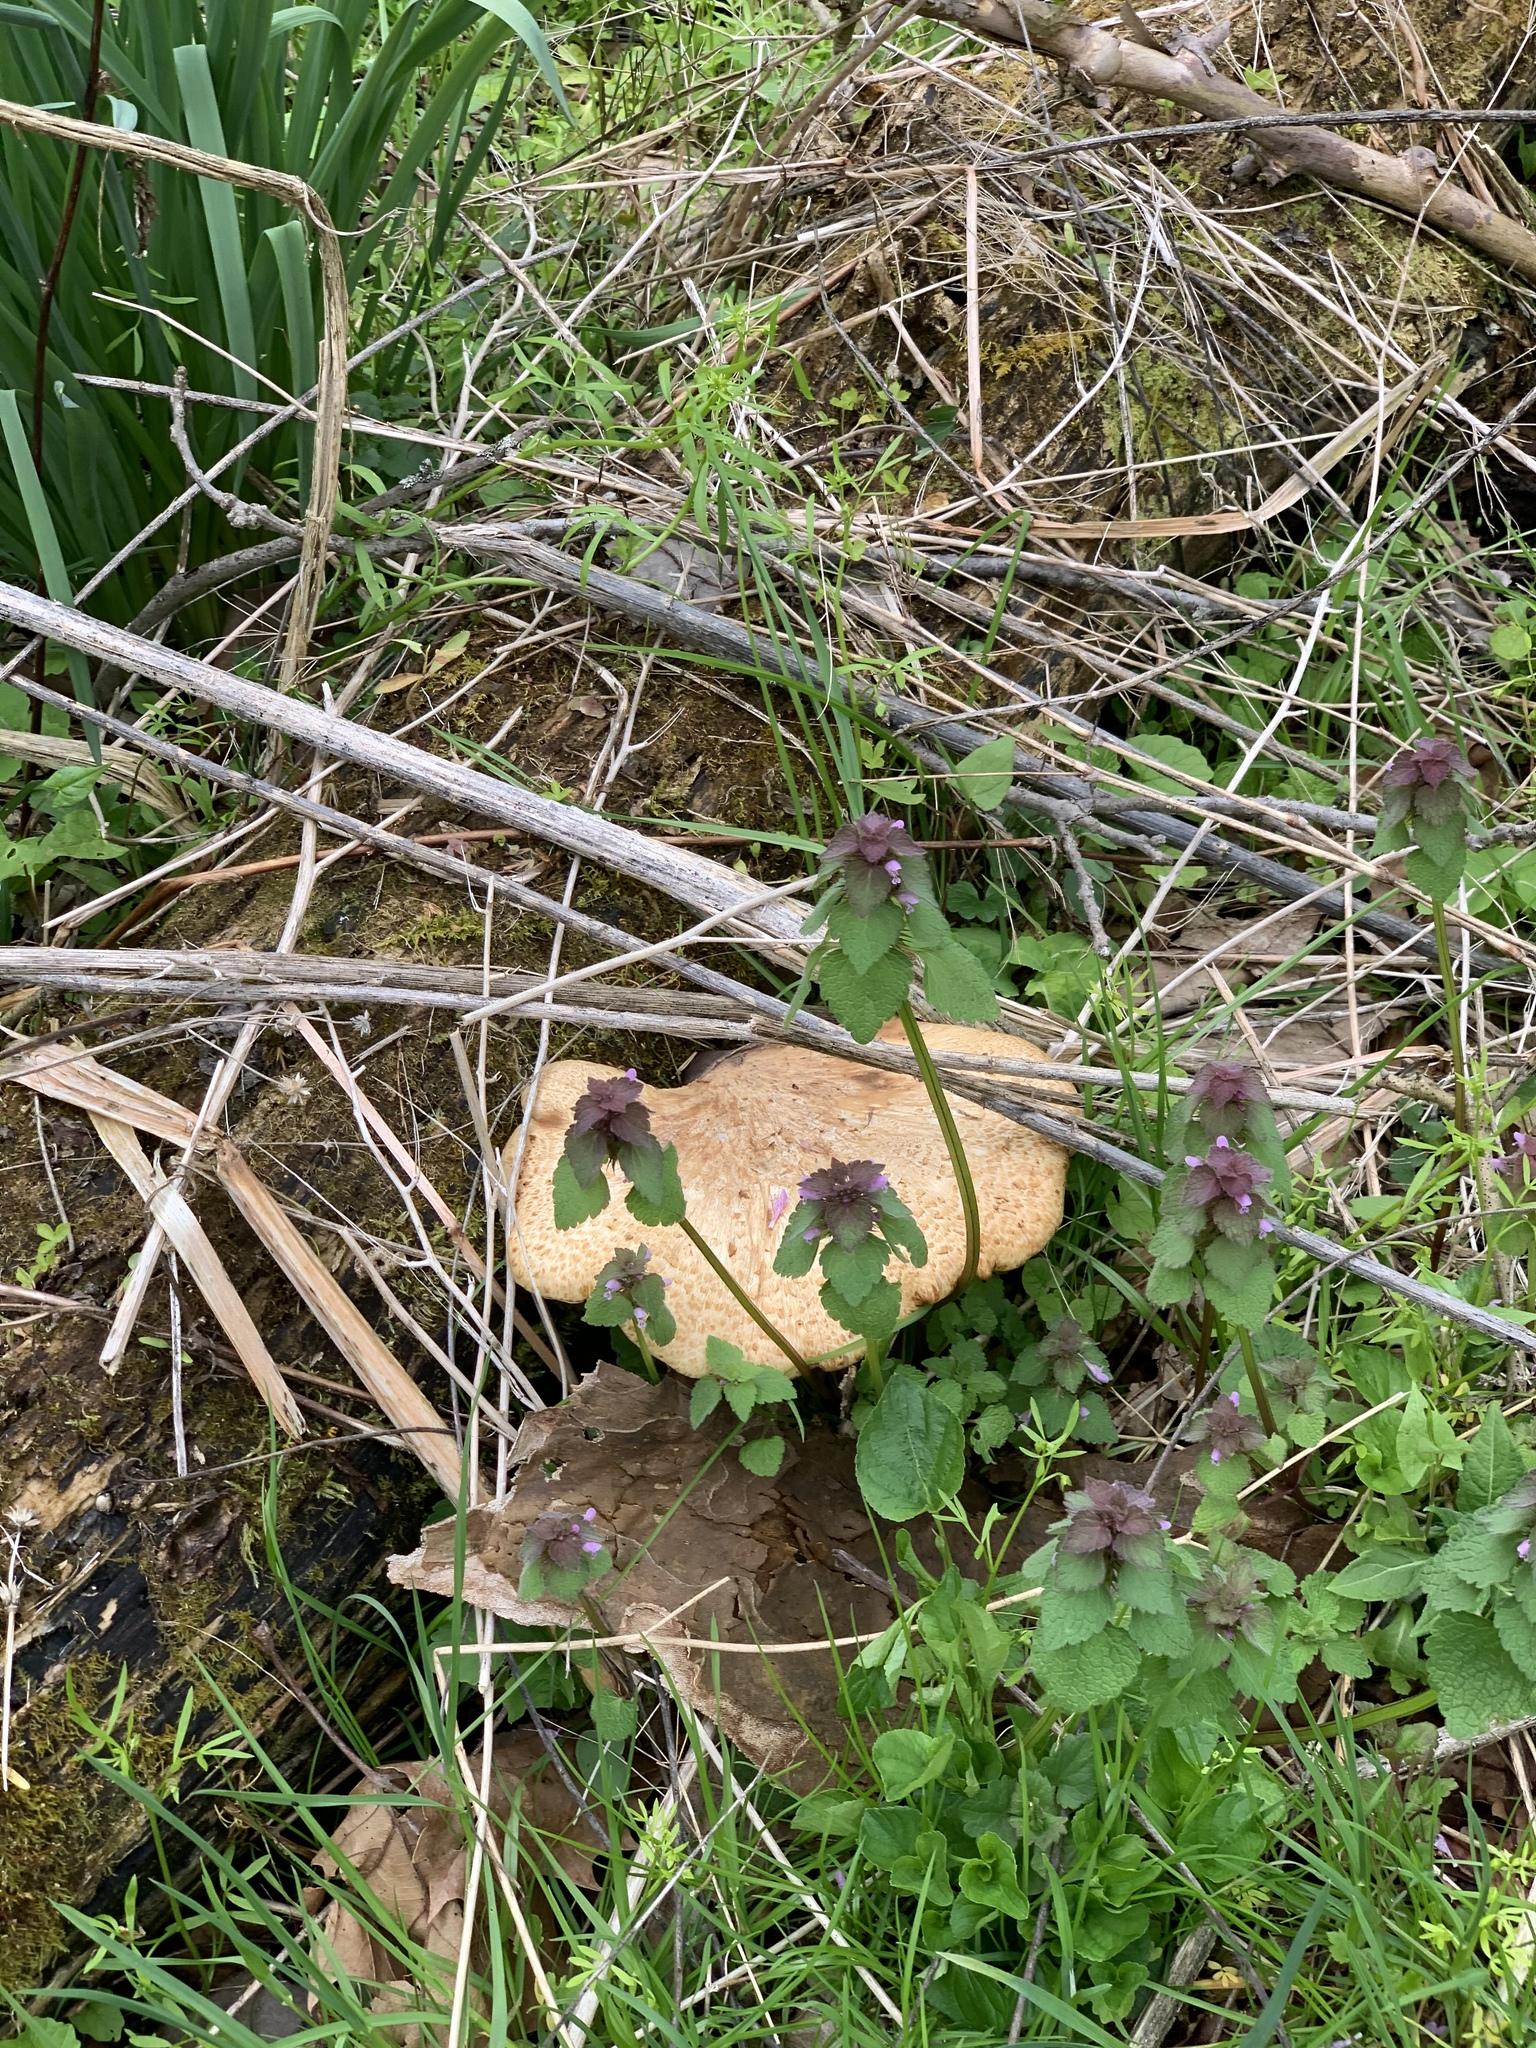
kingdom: Fungi
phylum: Basidiomycota
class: Agaricomycetes
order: Polyporales
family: Polyporaceae
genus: Cerioporus
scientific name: Cerioporus squamosus
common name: Dryad's saddle
